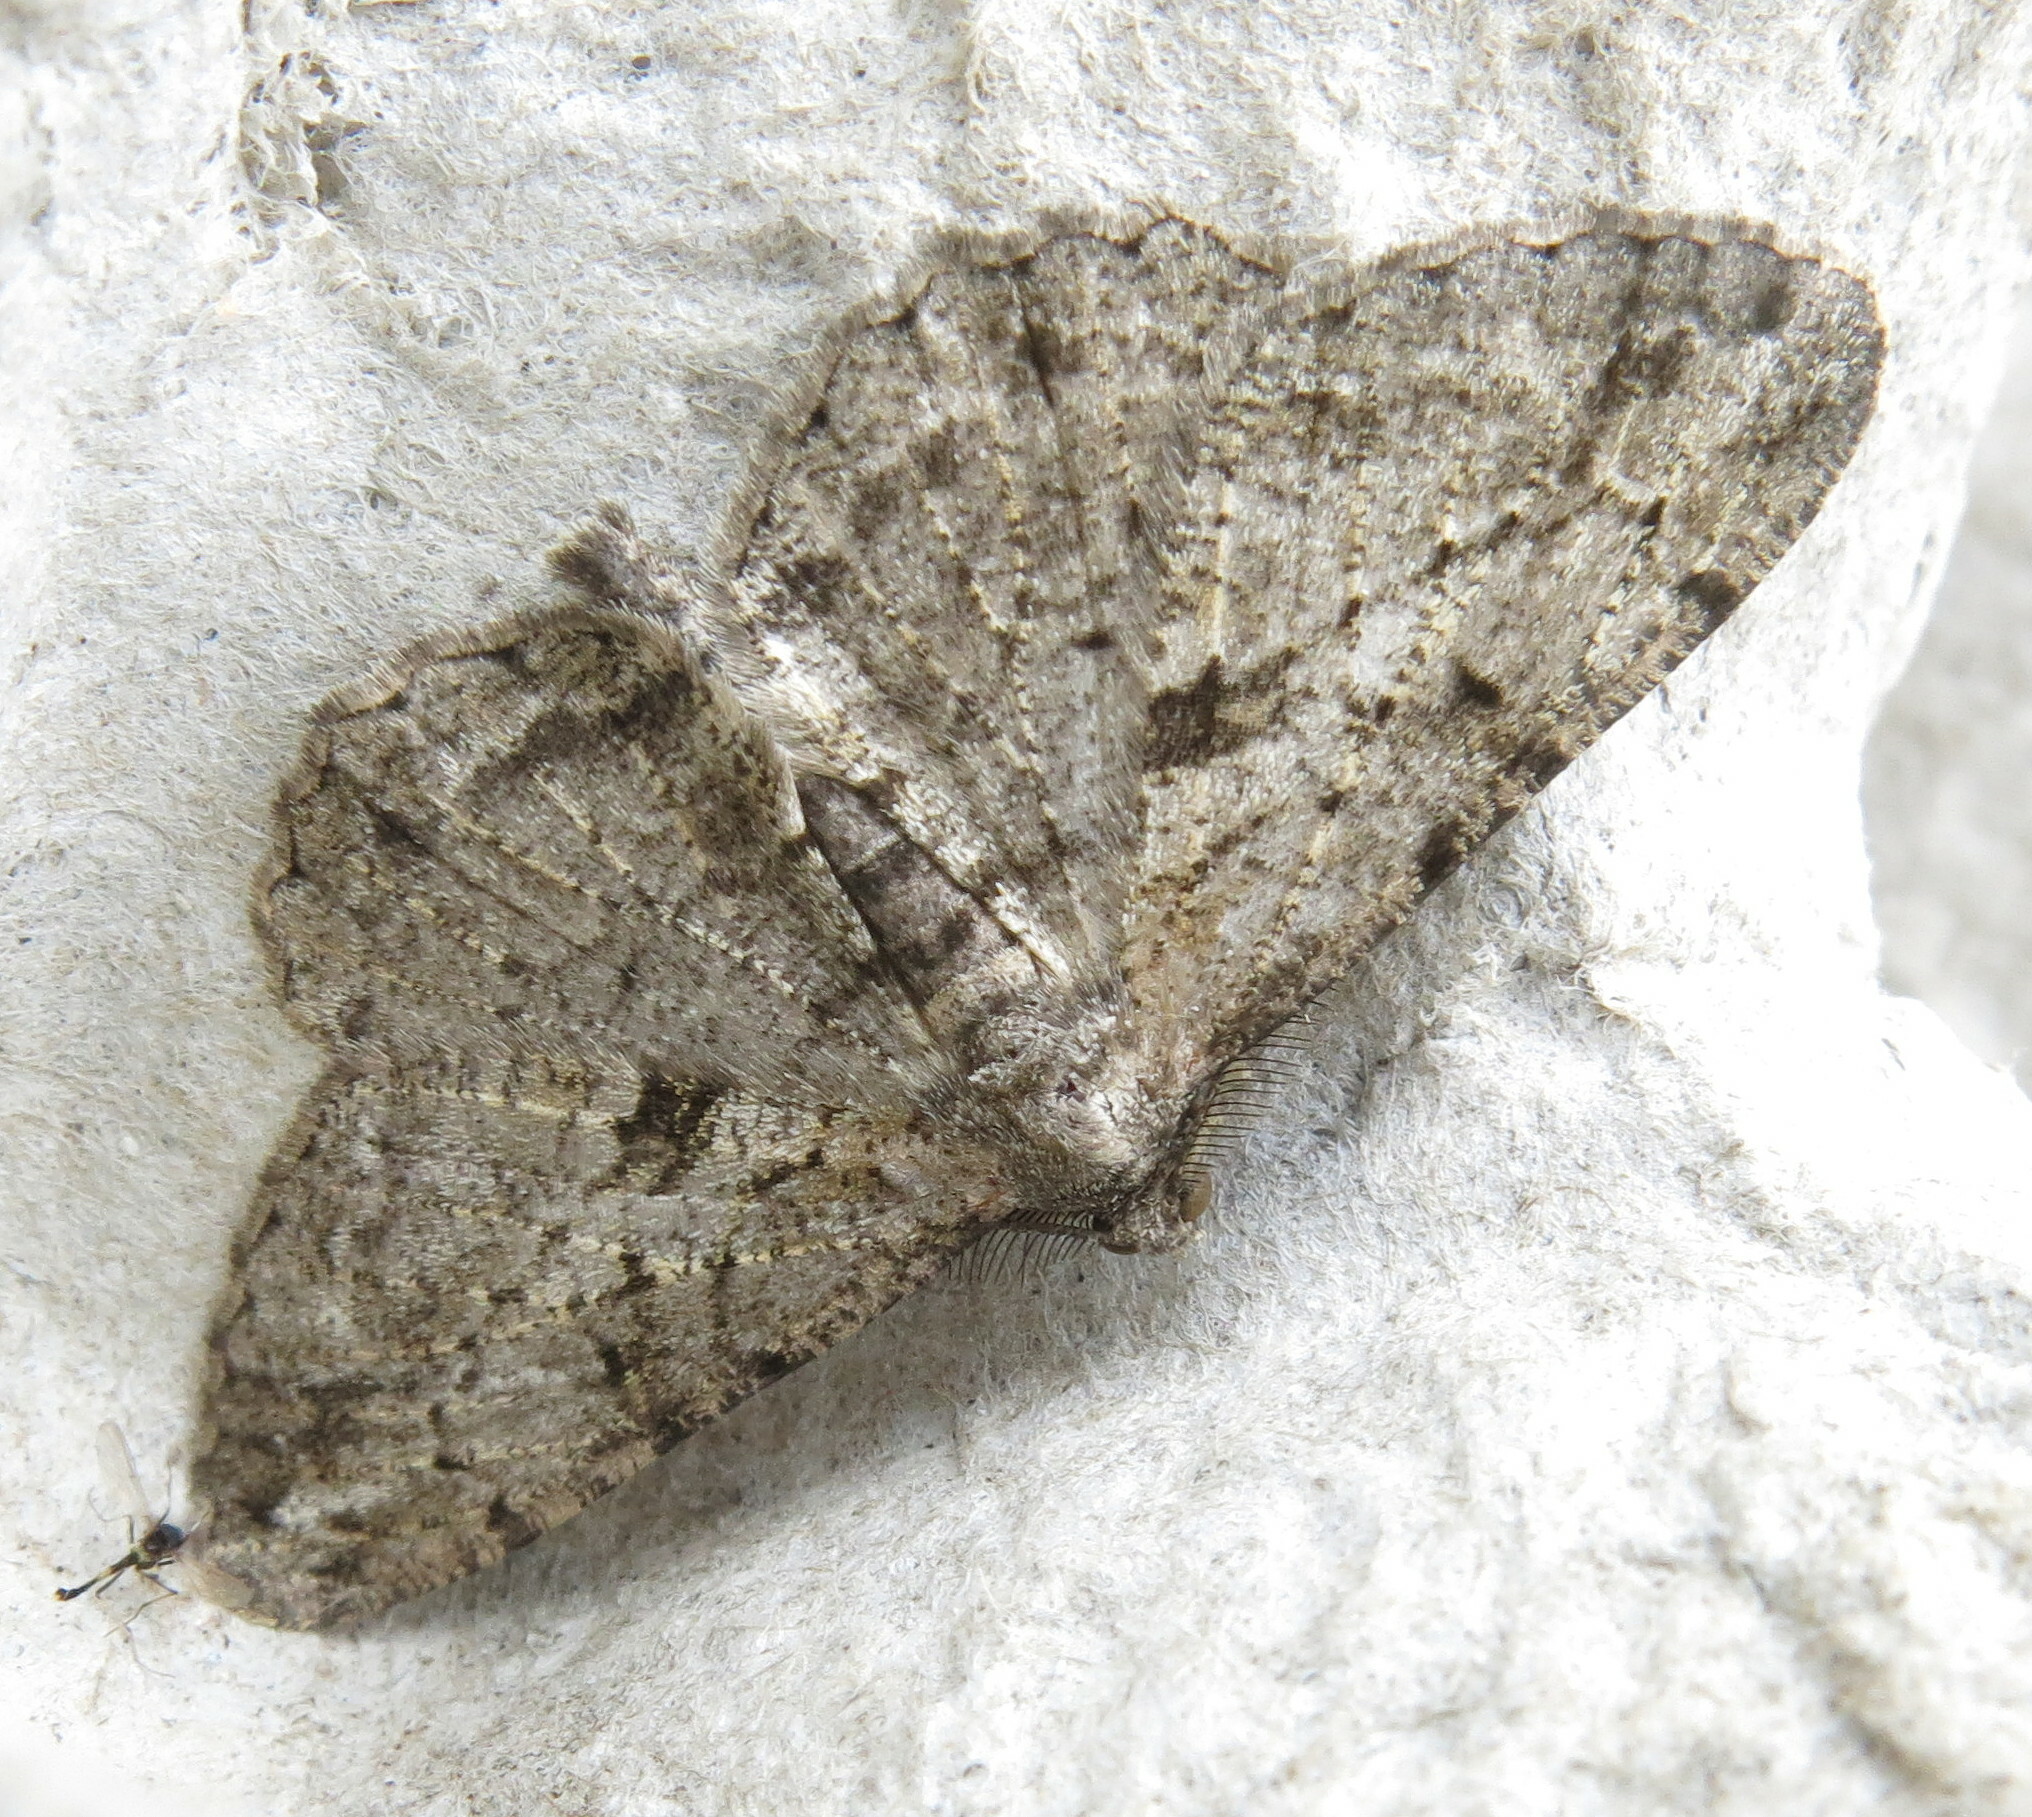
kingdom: Animalia
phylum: Arthropoda
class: Insecta
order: Lepidoptera
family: Geometridae
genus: Peribatodes
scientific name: Peribatodes rhomboidaria
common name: Willow beauty
